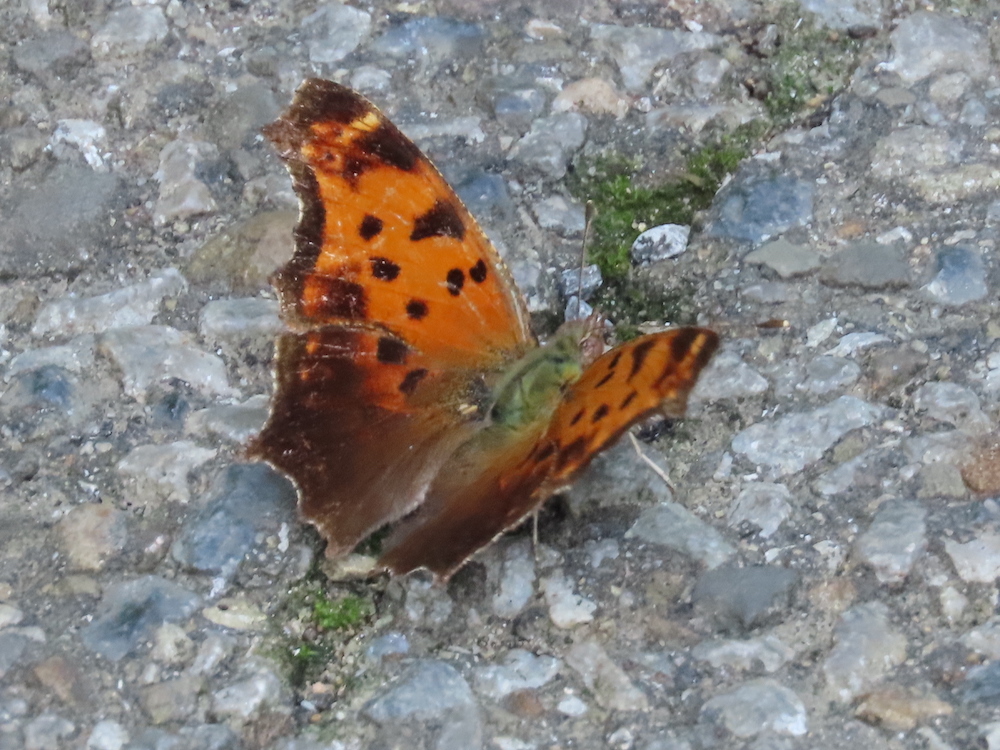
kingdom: Animalia
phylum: Arthropoda
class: Insecta
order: Lepidoptera
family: Nymphalidae
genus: Polygonia
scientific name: Polygonia comma
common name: Eastern comma
